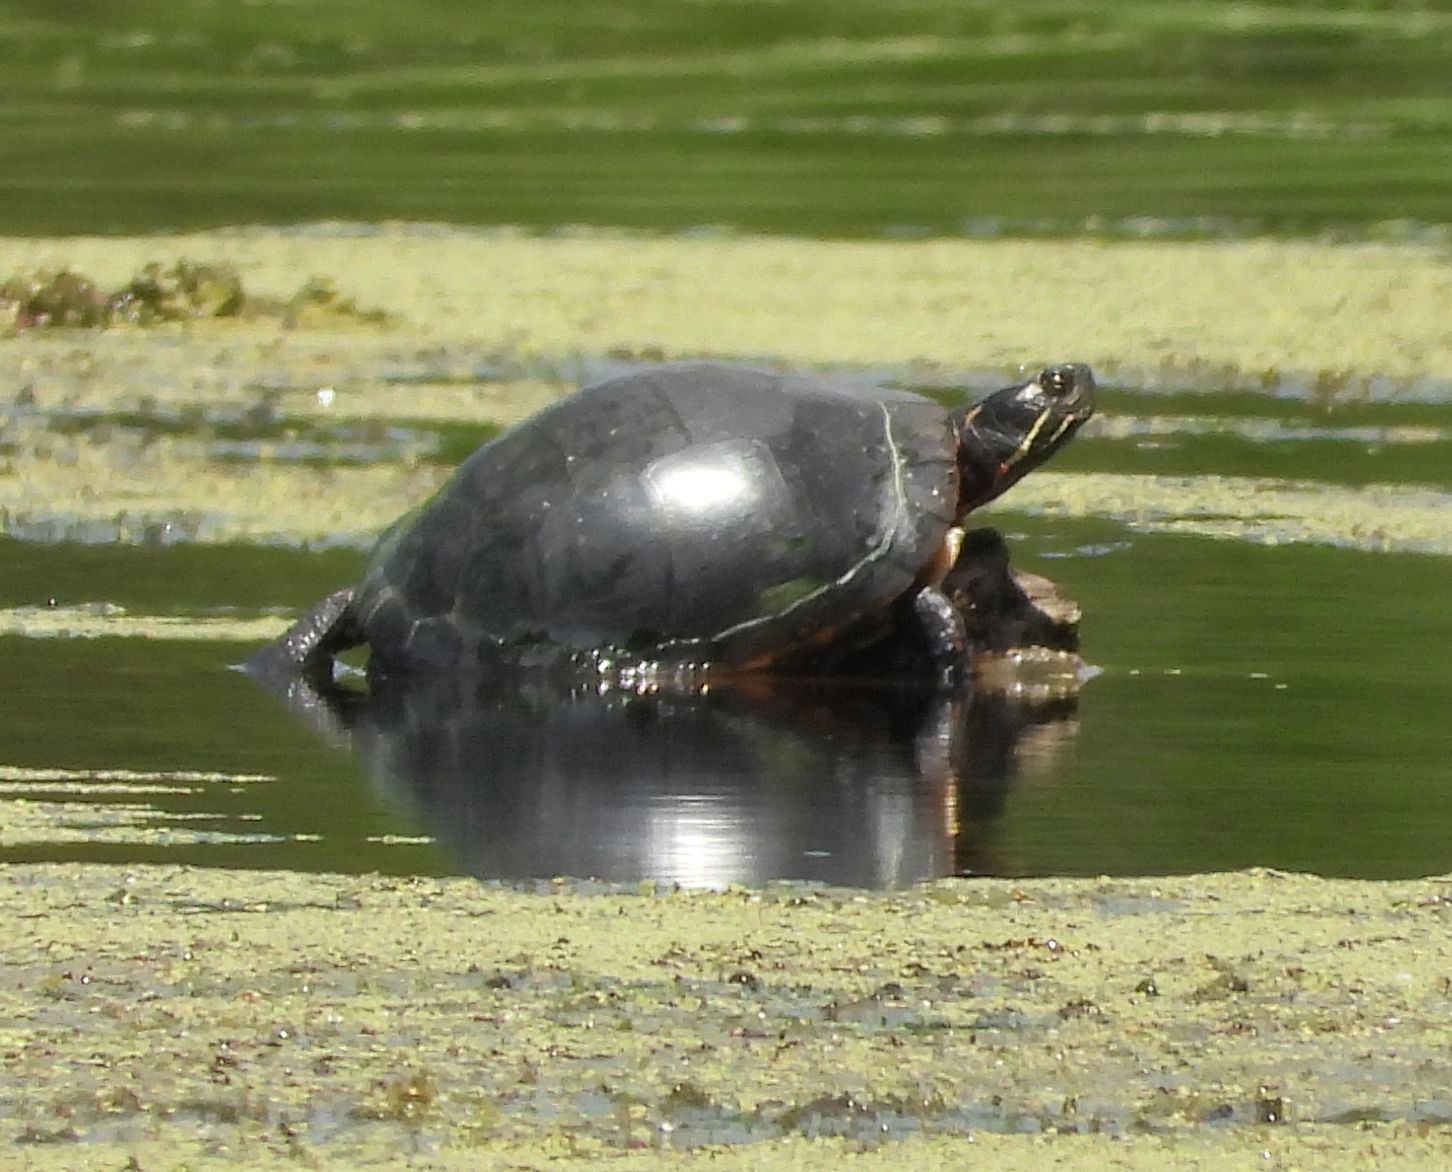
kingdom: Animalia
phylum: Chordata
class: Testudines
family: Emydidae
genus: Chrysemys
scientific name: Chrysemys picta
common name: Painted turtle
